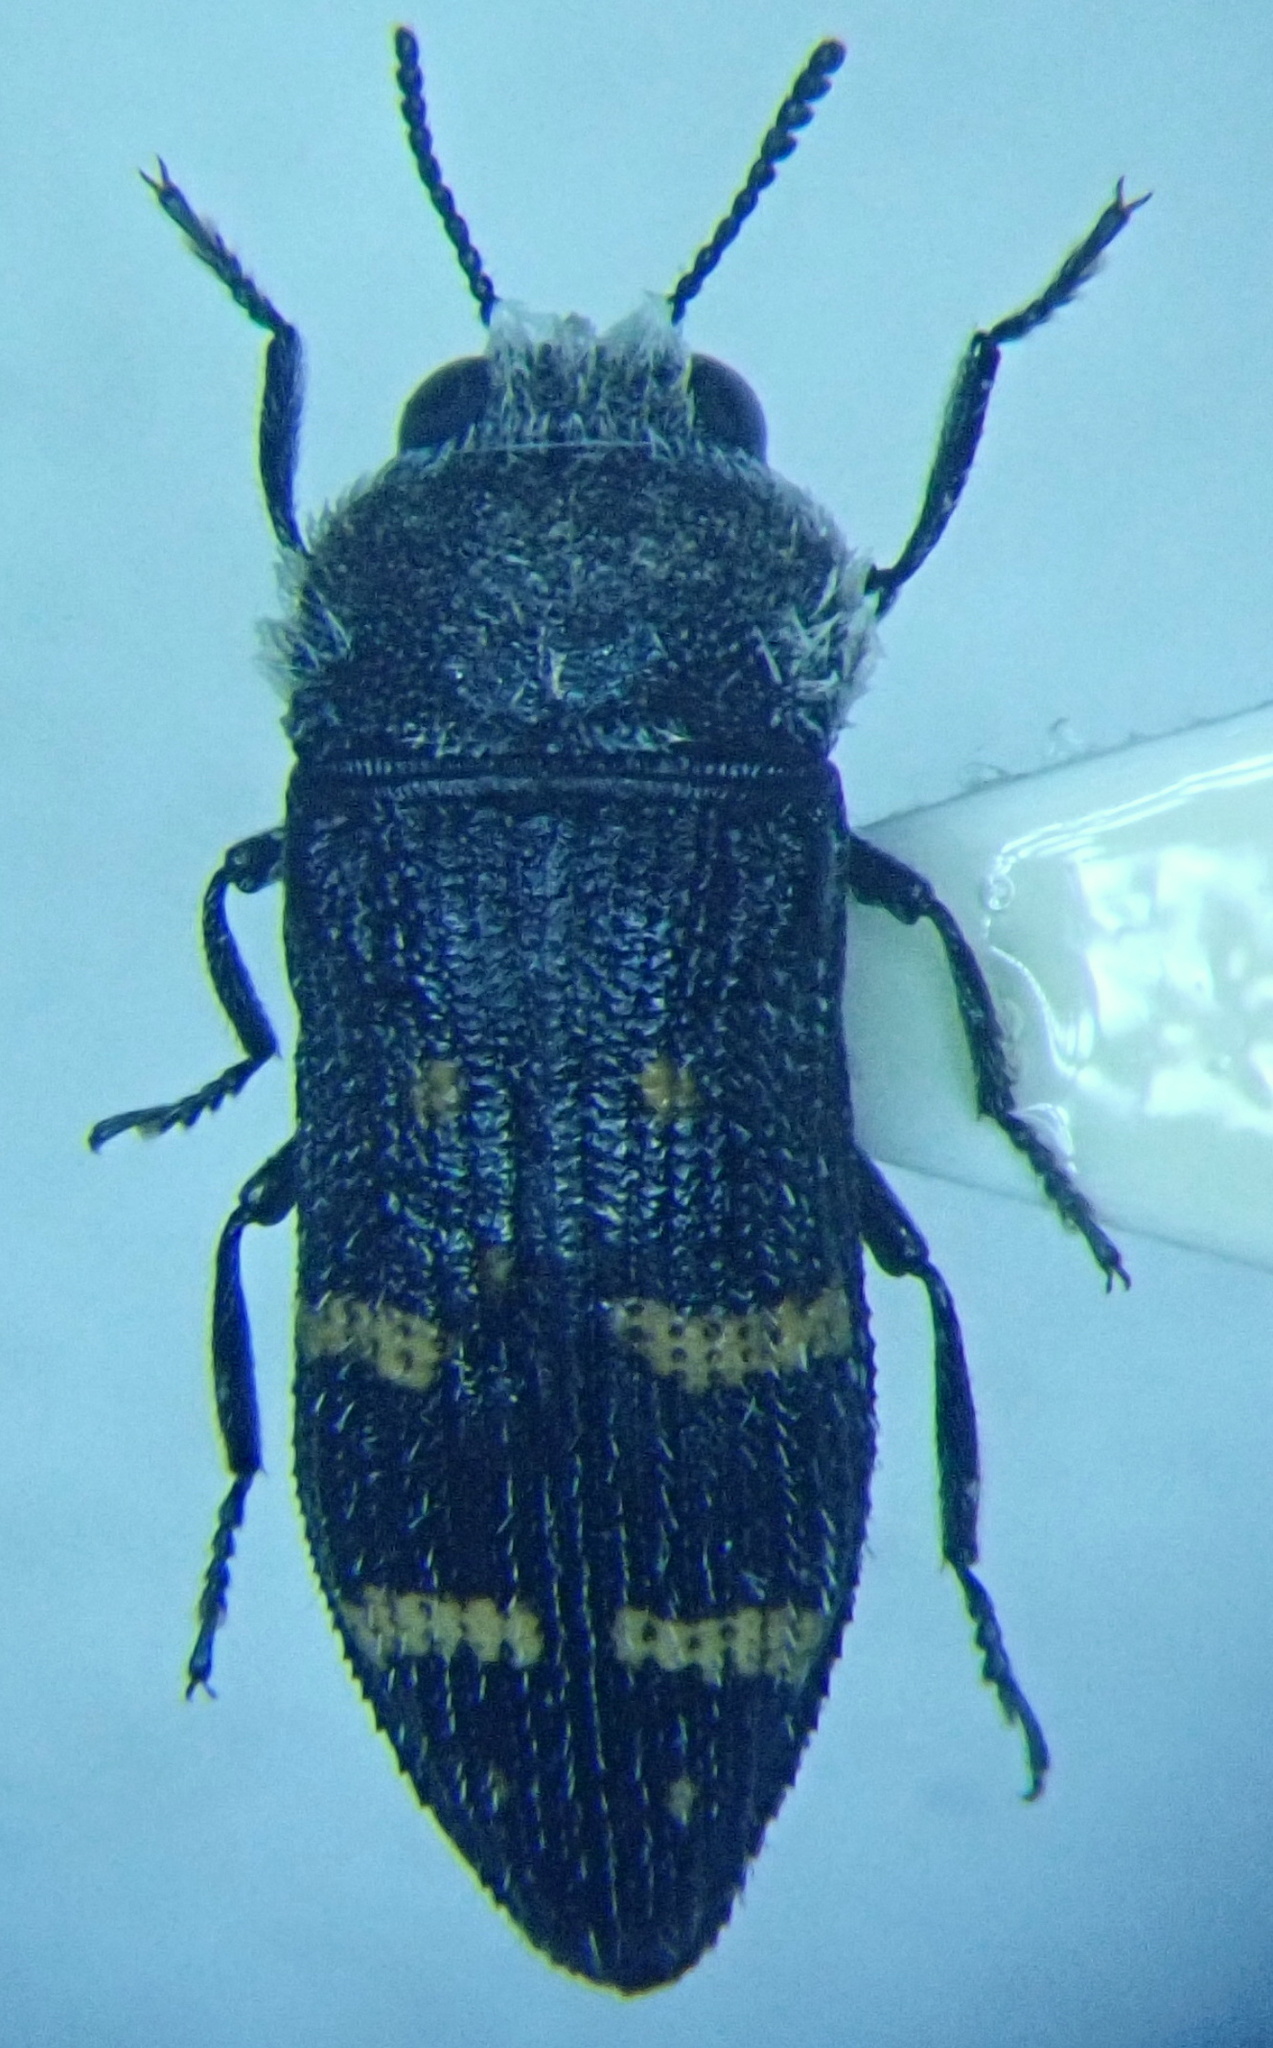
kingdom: Animalia
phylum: Arthropoda
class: Insecta
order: Coleoptera
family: Buprestidae
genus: Acmaeoderella
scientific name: Acmaeoderella flavofasciata
